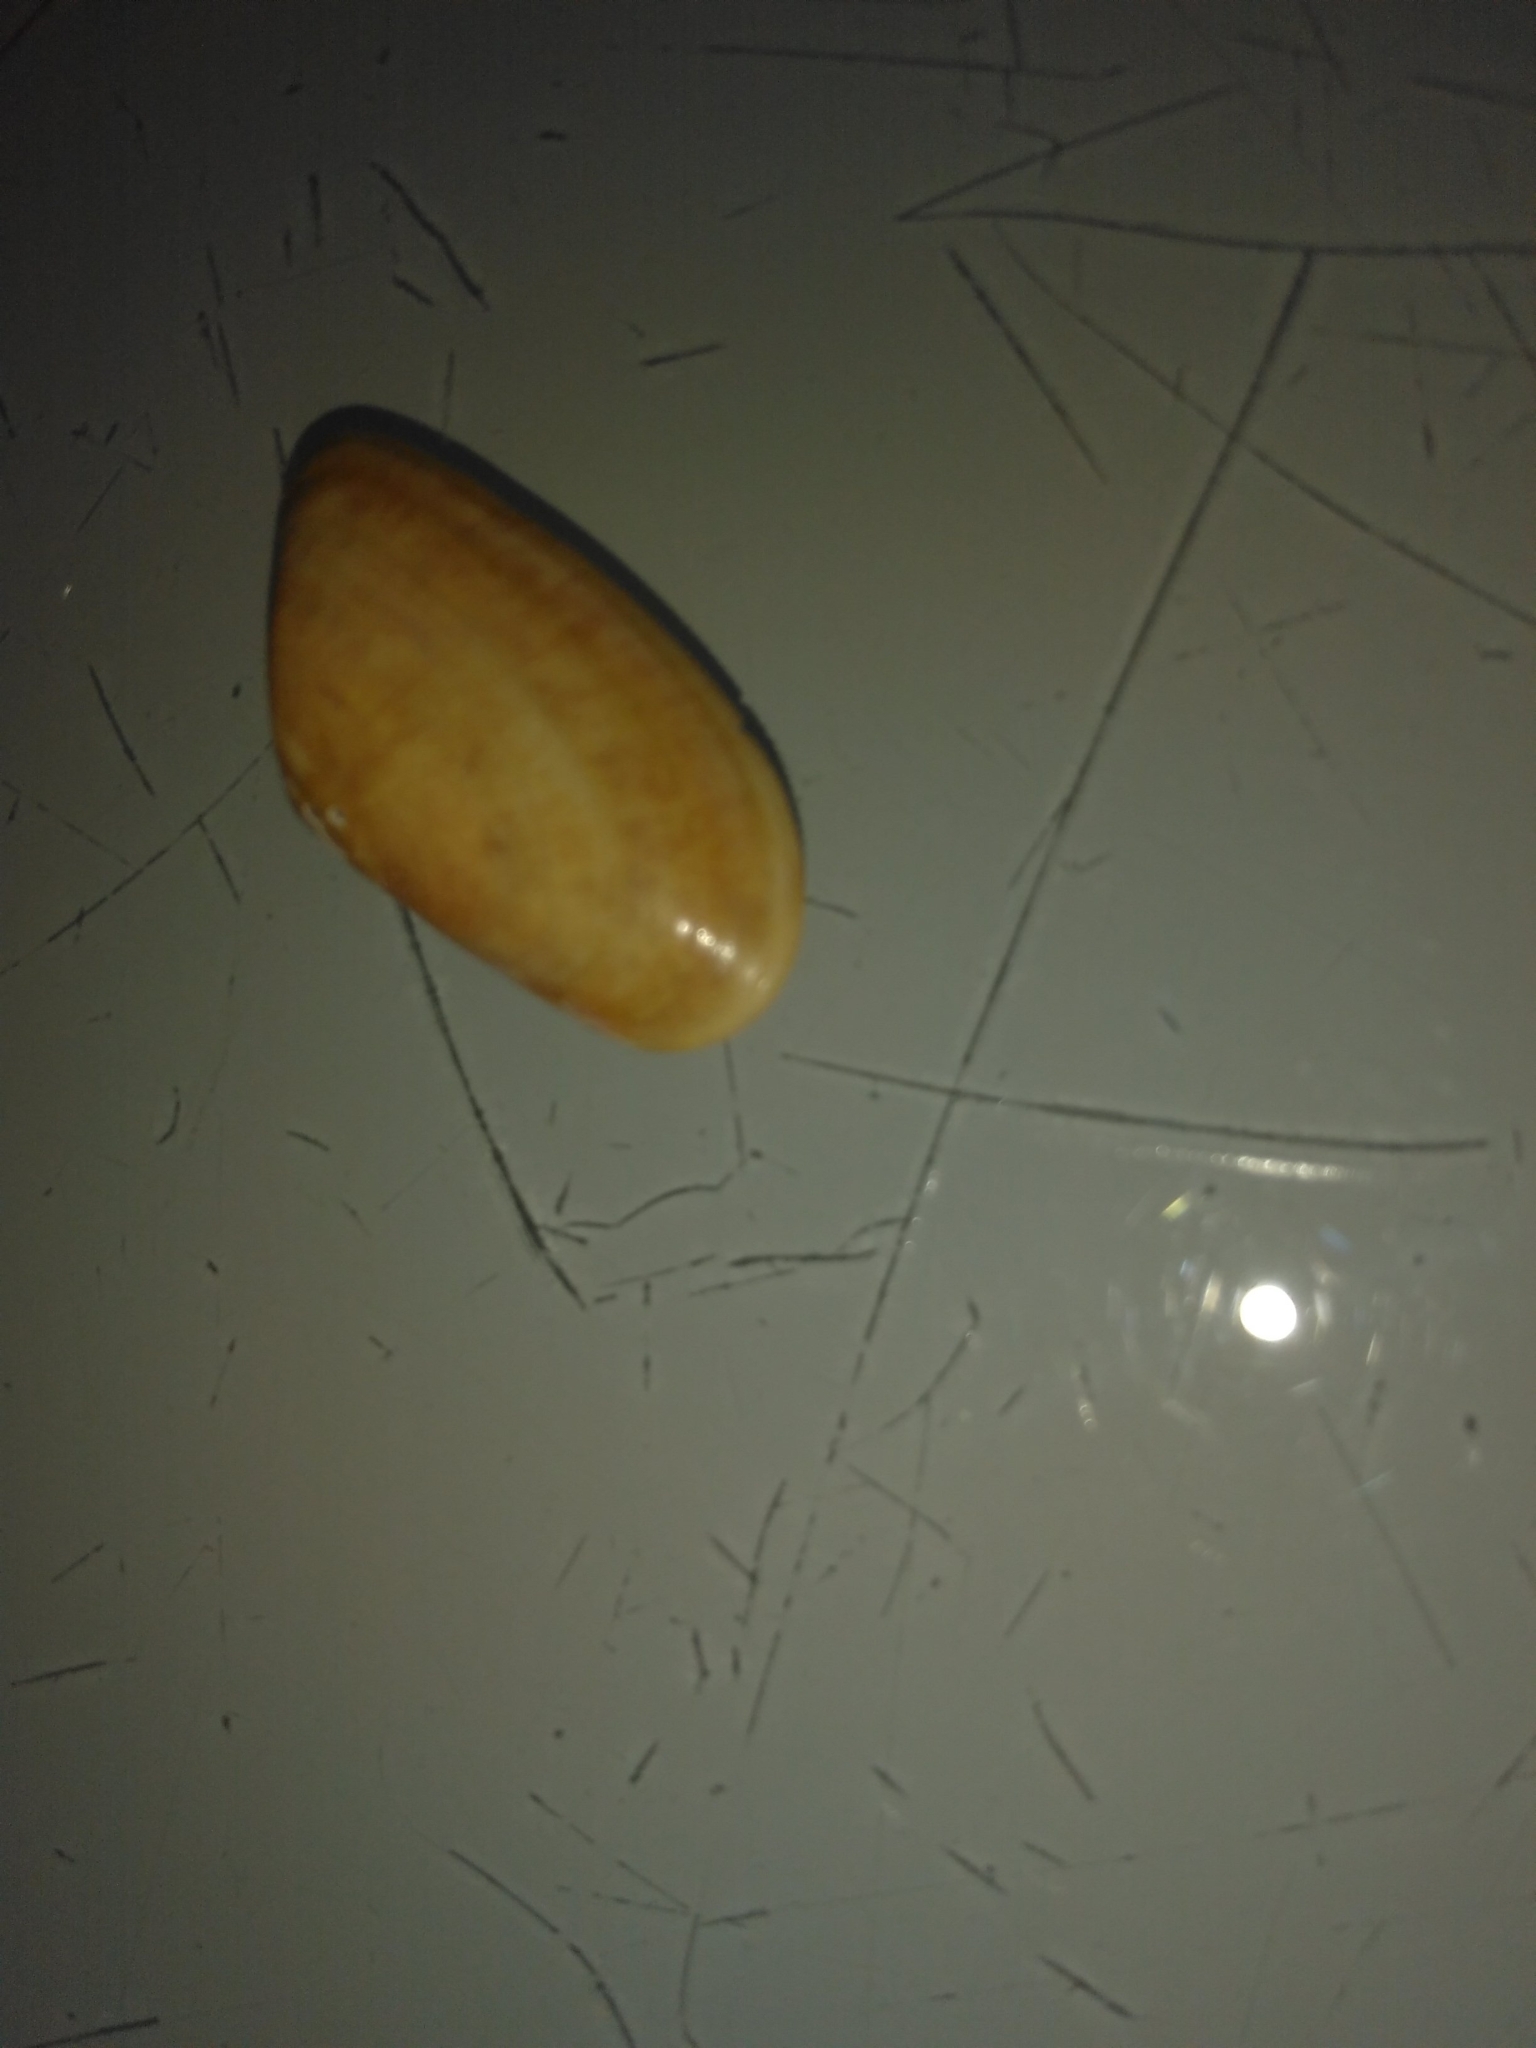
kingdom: Animalia
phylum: Mollusca
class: Bivalvia
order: Cardiida
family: Donacidae
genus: Donax
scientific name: Donax vittatus
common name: Banded wedge-shell
